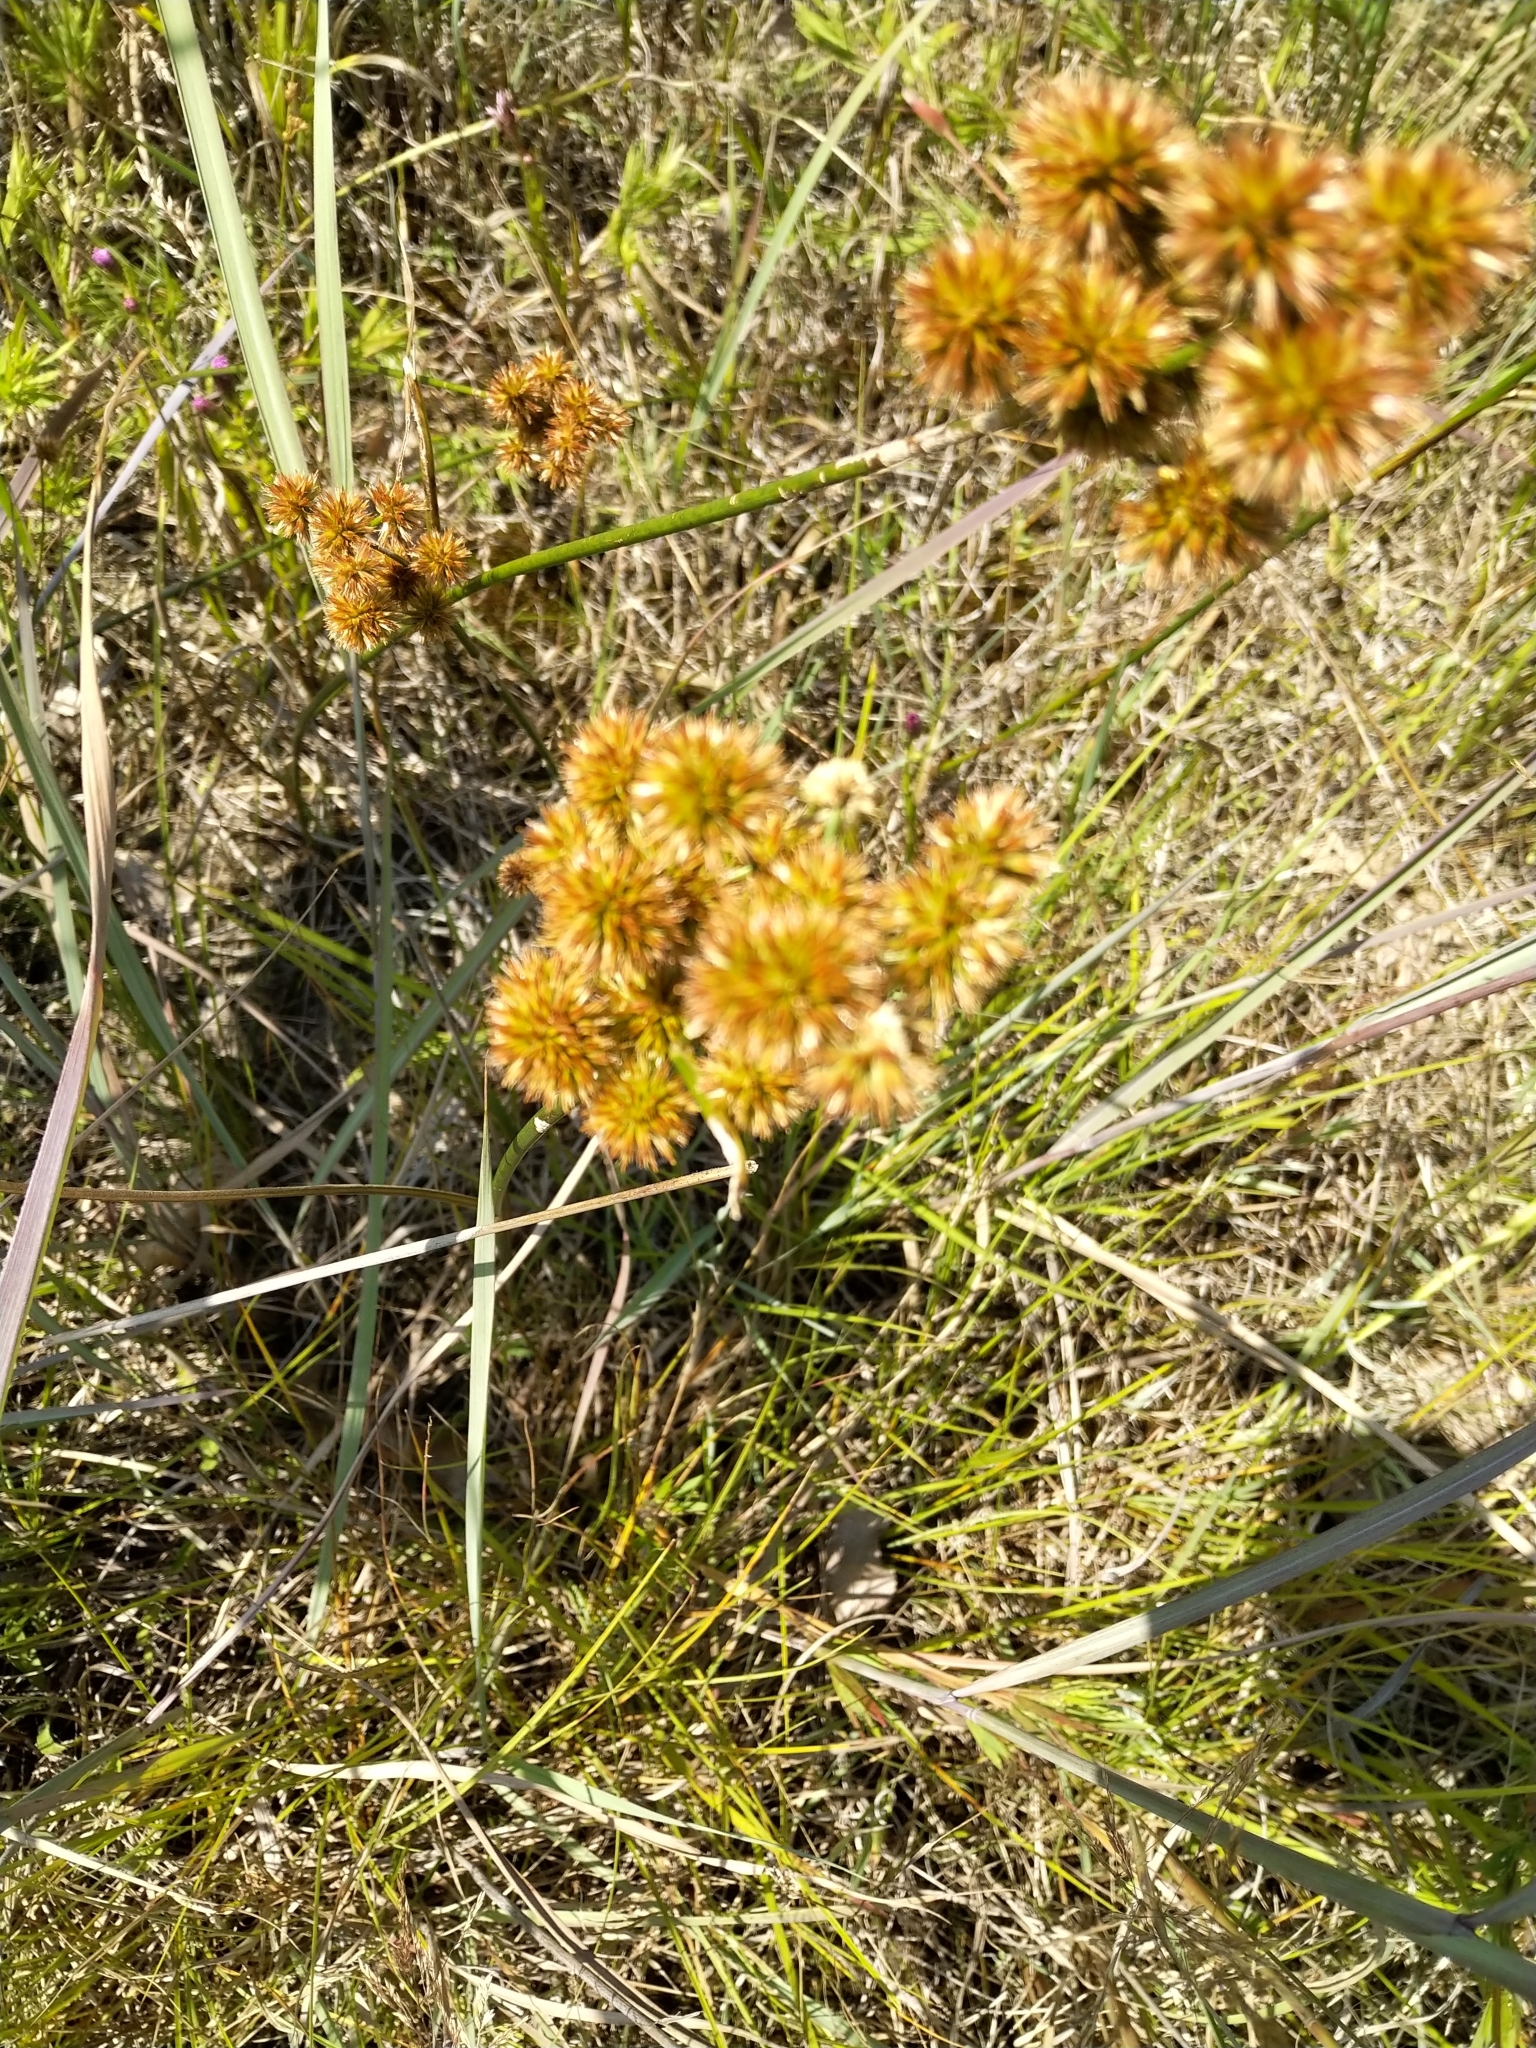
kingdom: Plantae
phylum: Tracheophyta
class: Liliopsida
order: Poales
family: Juncaceae
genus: Juncus
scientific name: Juncus torreyi
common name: Torrey's rush
